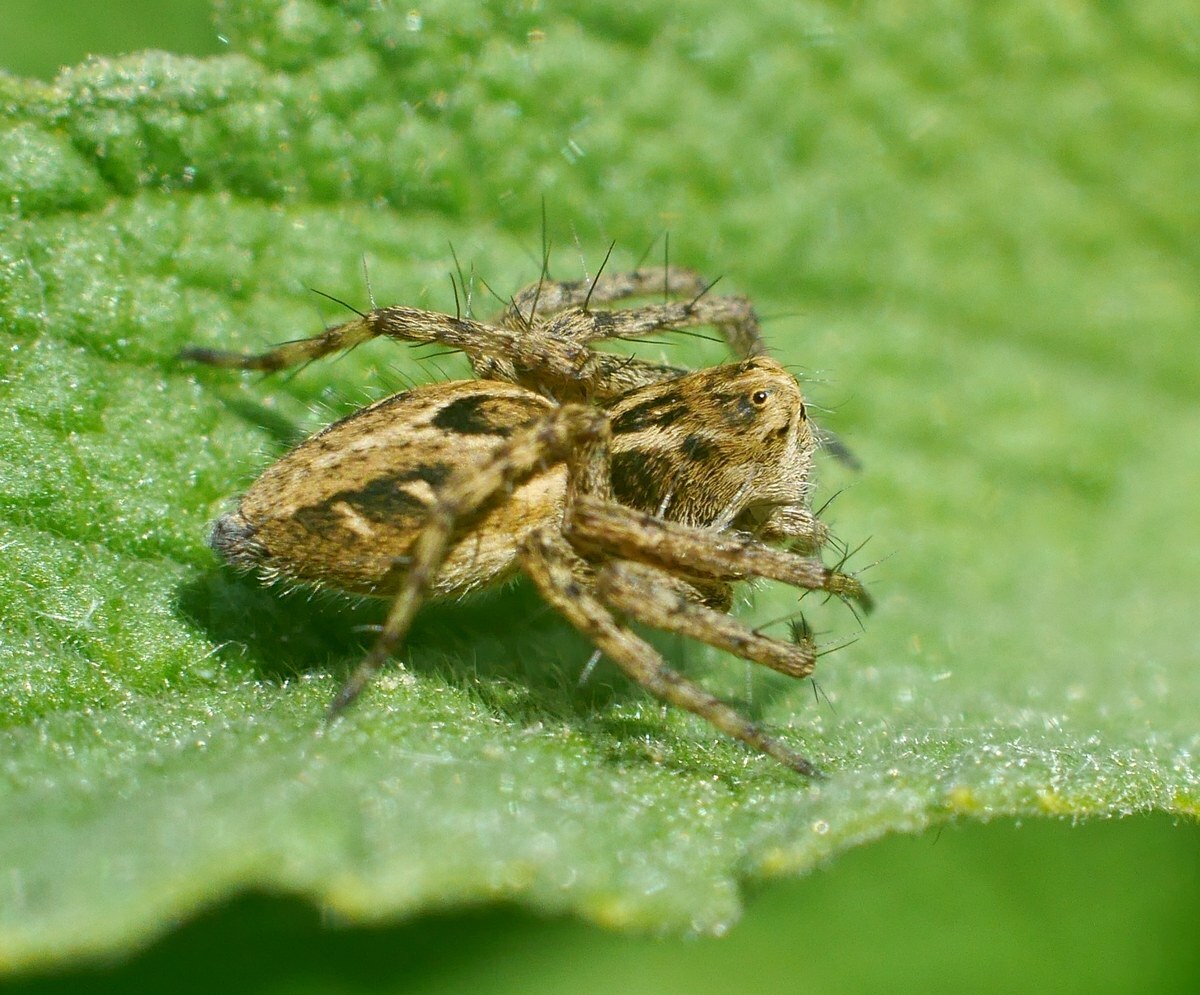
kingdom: Animalia
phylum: Arthropoda
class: Arachnida
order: Araneae
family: Oxyopidae
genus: Oxyopes
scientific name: Oxyopes heterophthalmus
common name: Lynx spider
